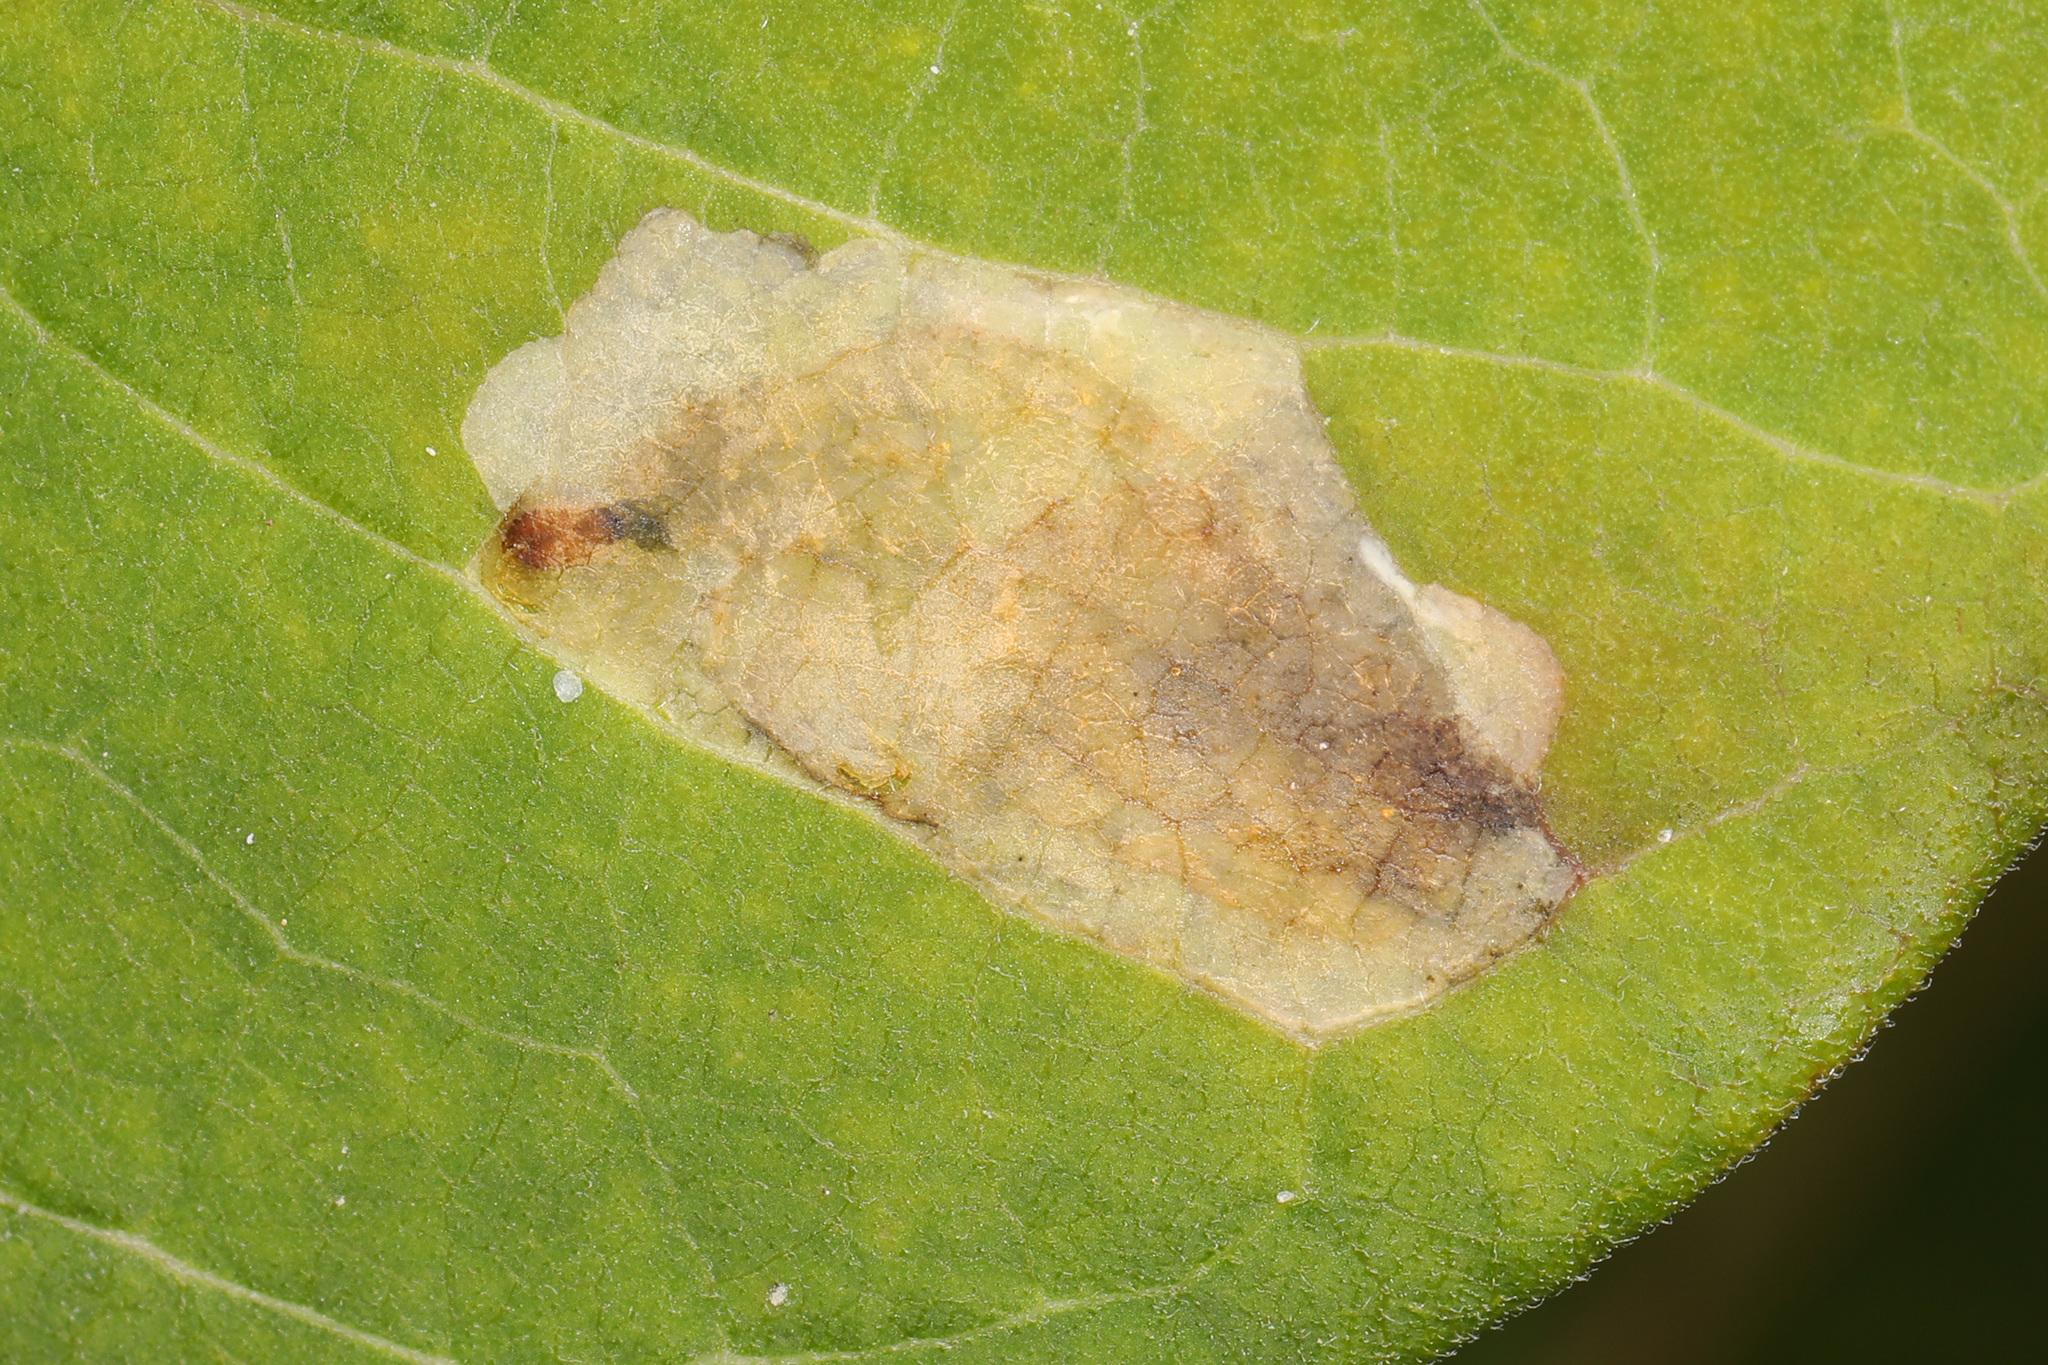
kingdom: Animalia
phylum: Arthropoda
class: Insecta
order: Diptera
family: Agromyzidae
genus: Liriomyza
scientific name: Liriomyza asclepiadis
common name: Milkweed leaf-miner fly
